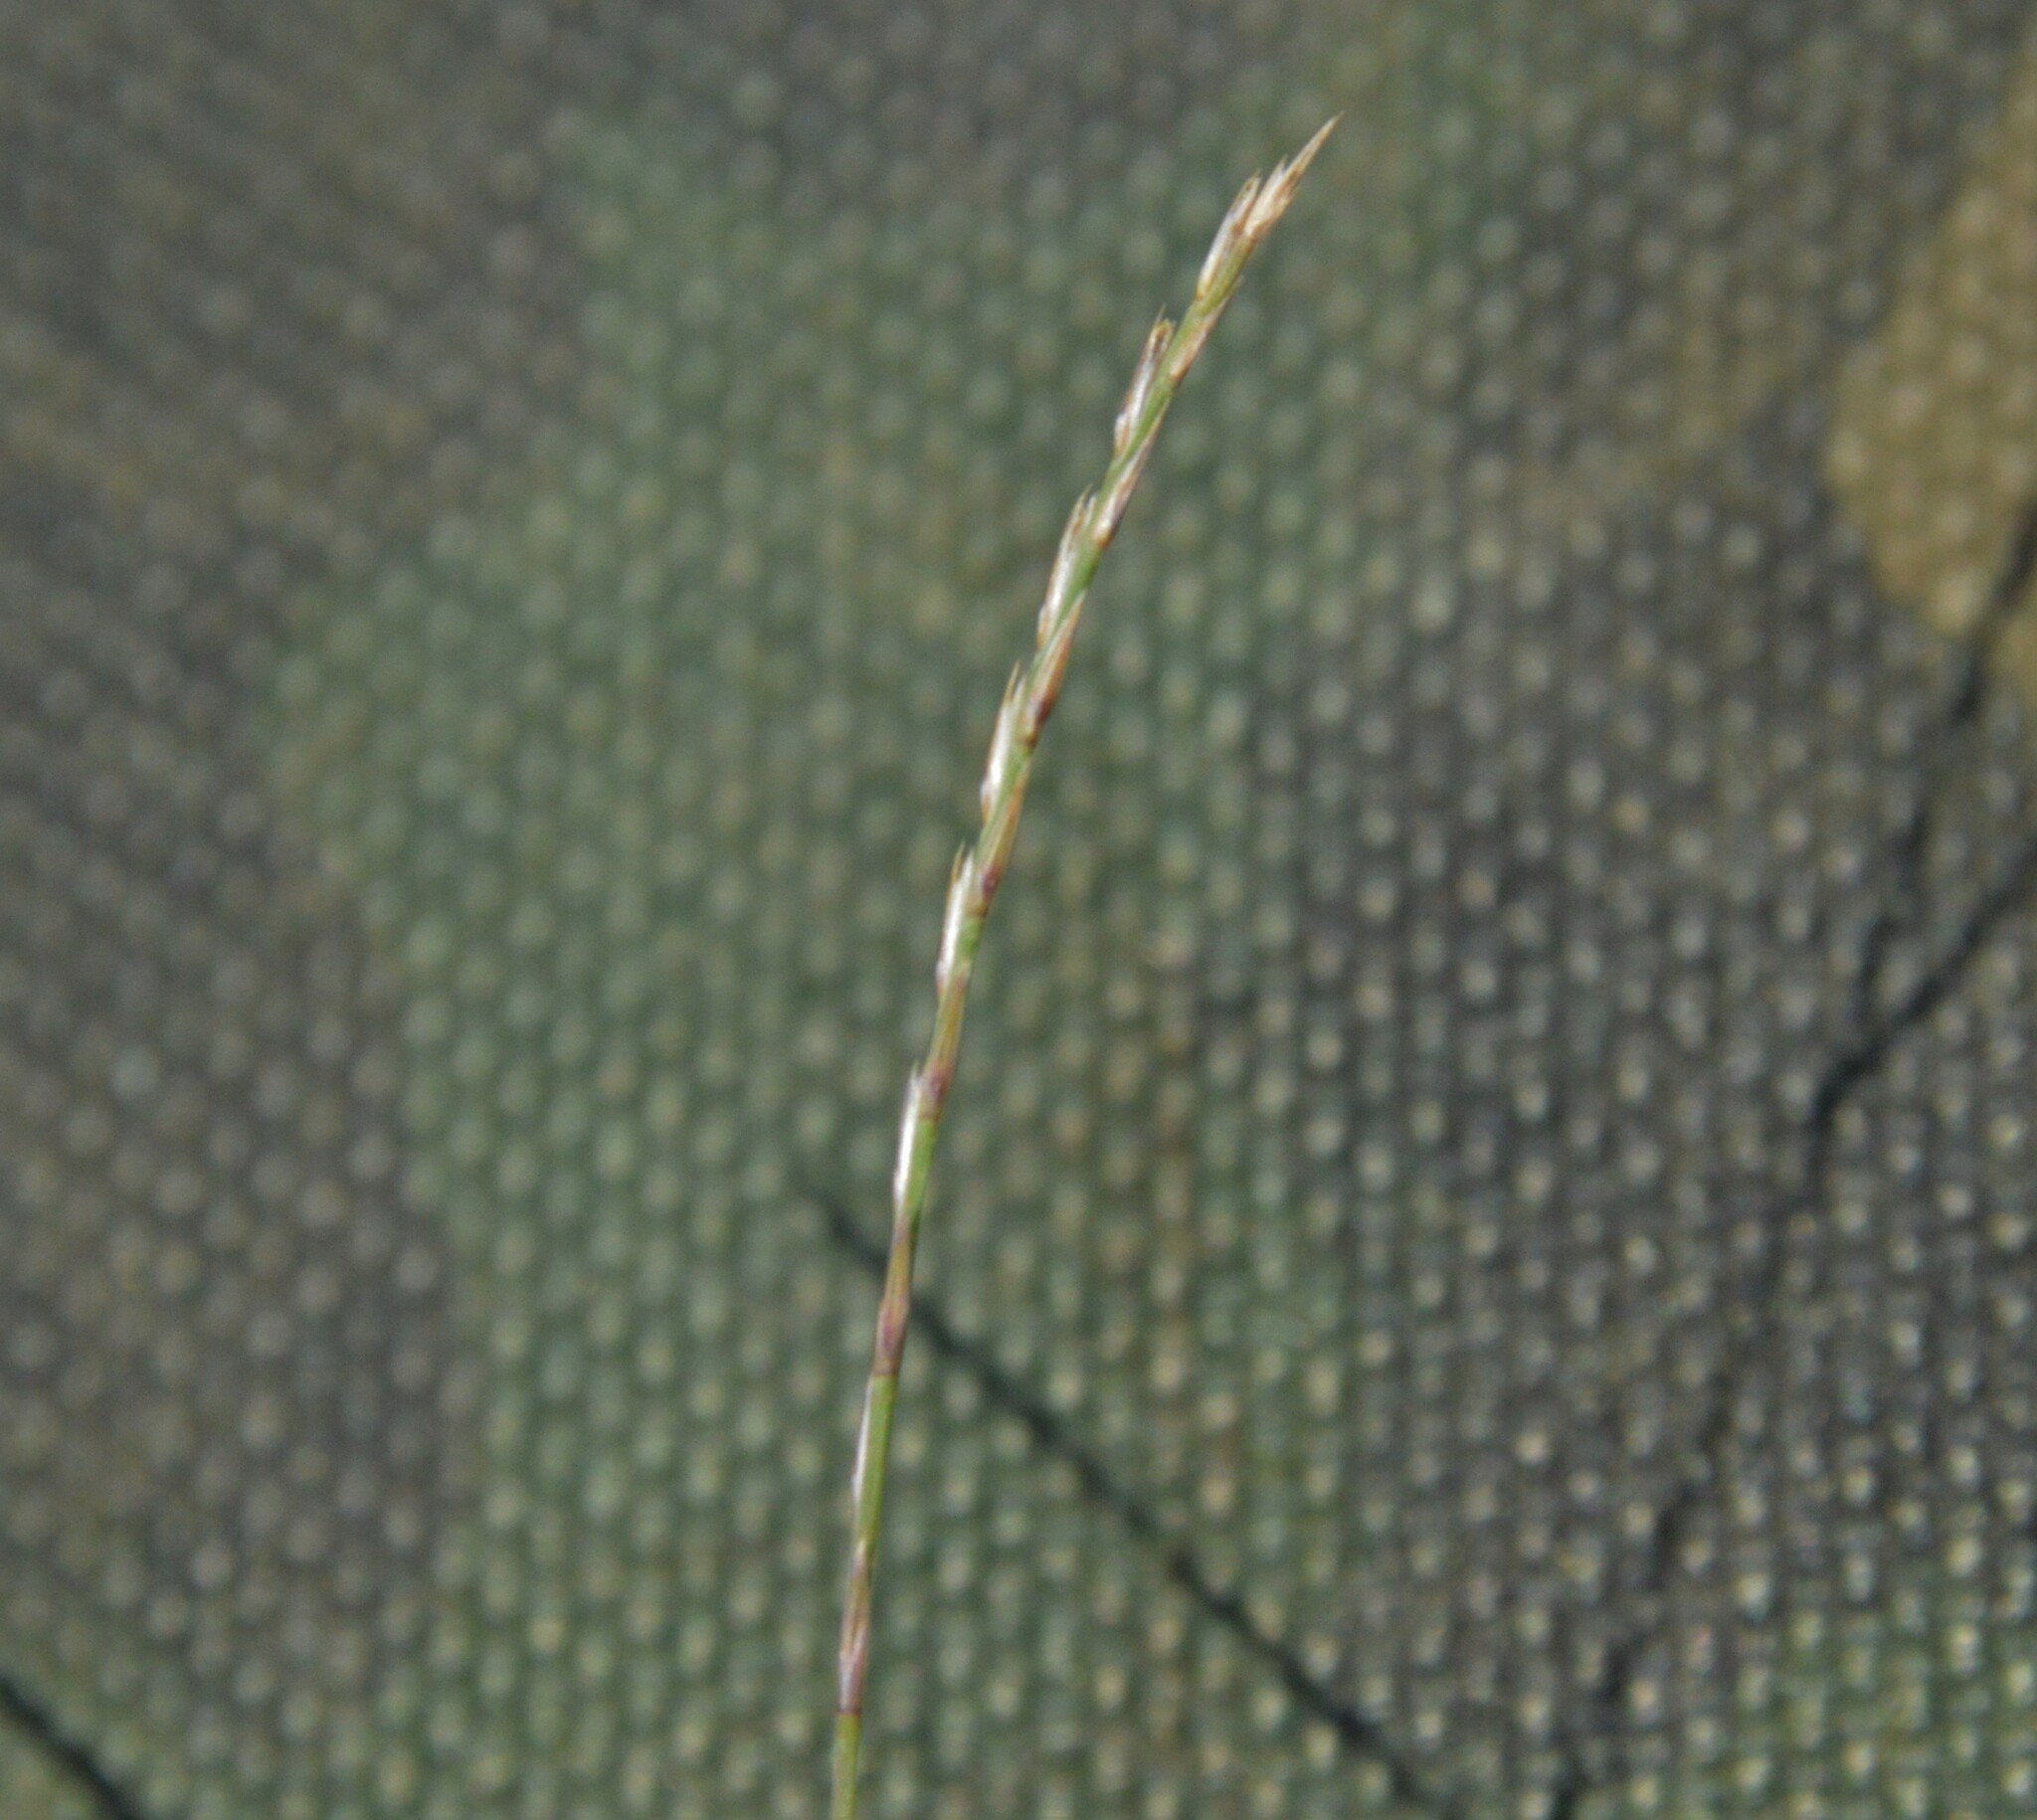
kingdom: Plantae
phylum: Tracheophyta
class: Liliopsida
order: Poales
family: Poaceae
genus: Muhlenbergia
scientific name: Muhlenbergia paniculata
